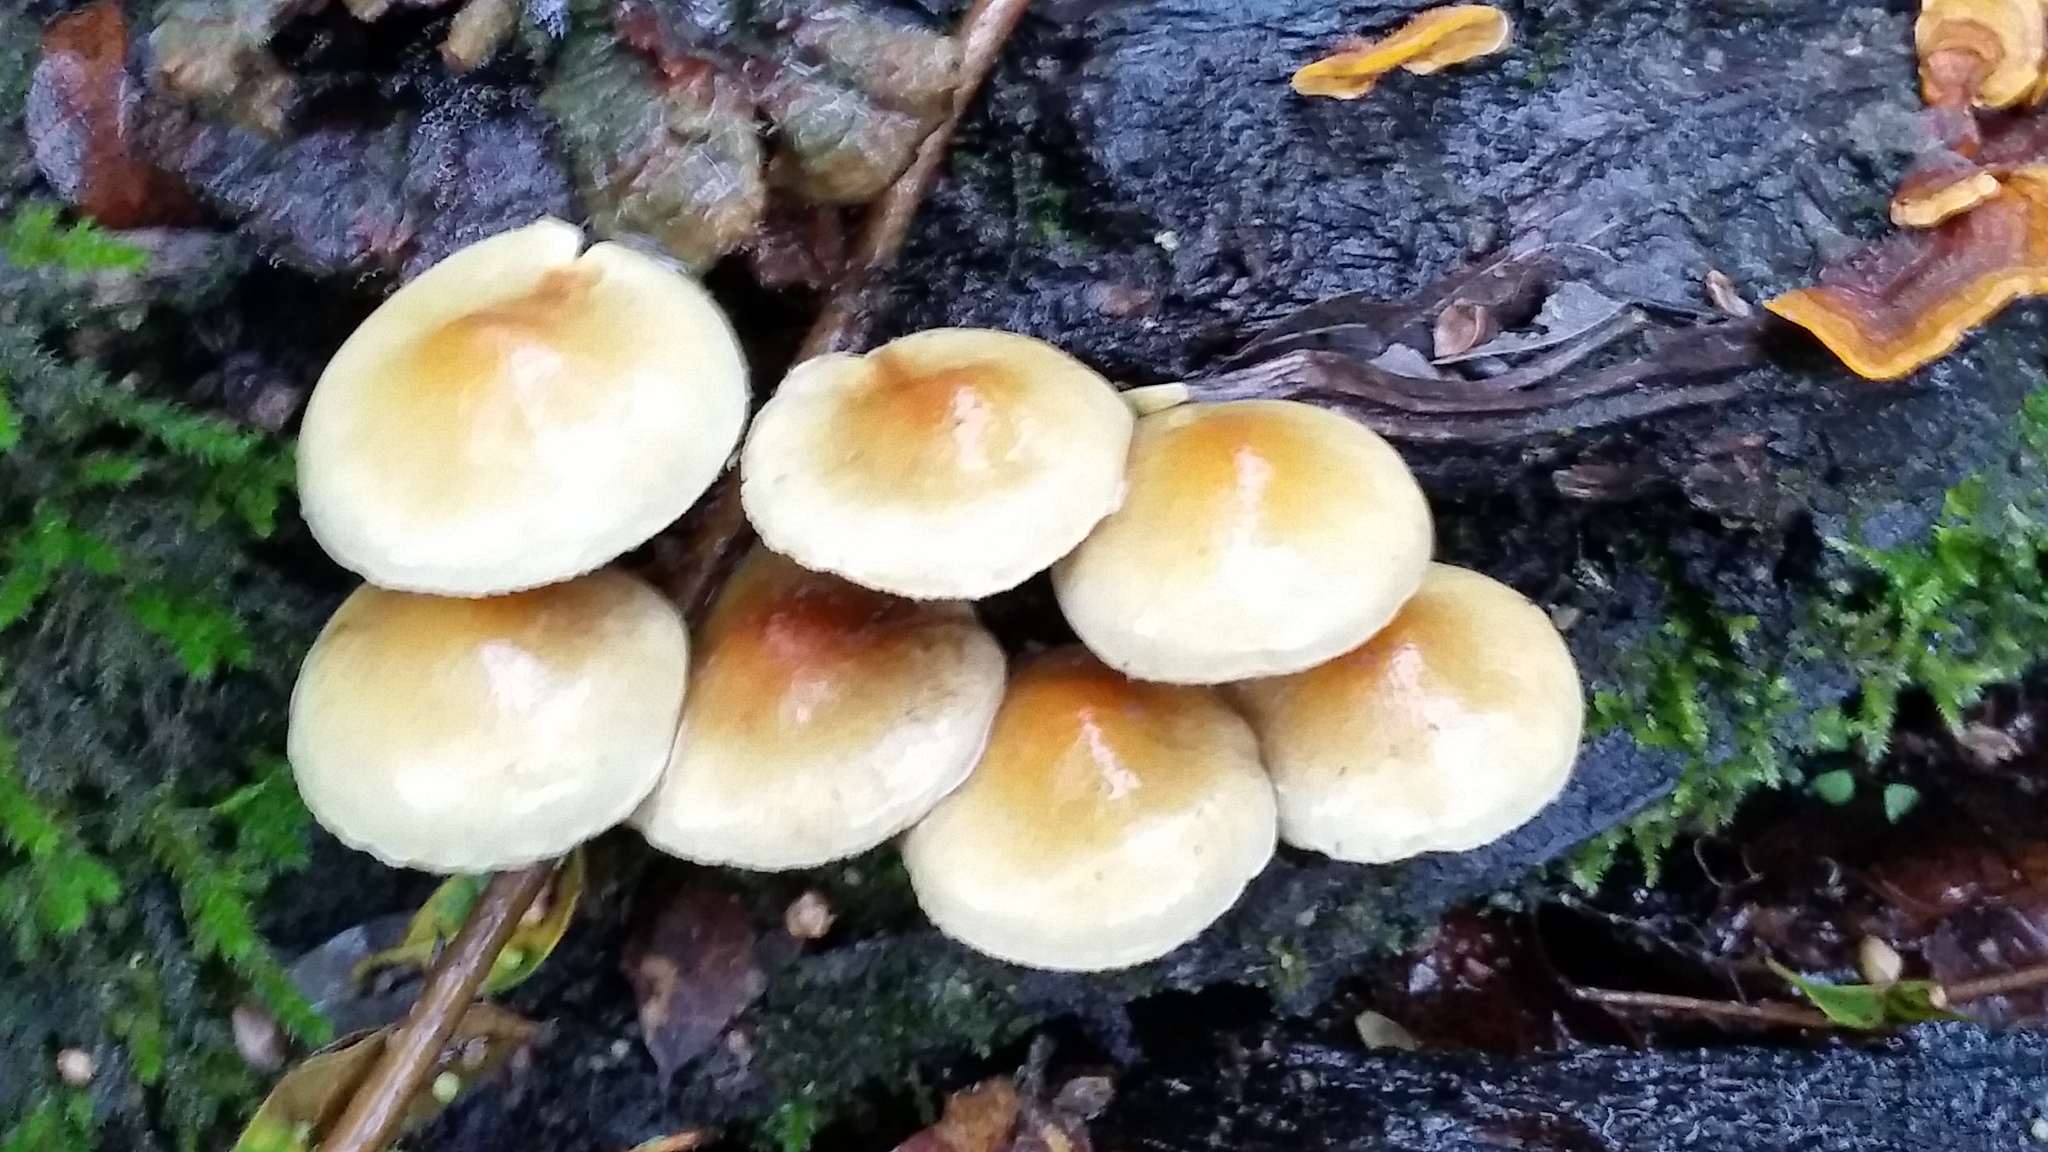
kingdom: Fungi
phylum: Basidiomycota
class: Agaricomycetes
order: Agaricales
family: Strophariaceae
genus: Hypholoma
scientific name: Hypholoma fasciculare
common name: Sulphur tuft
